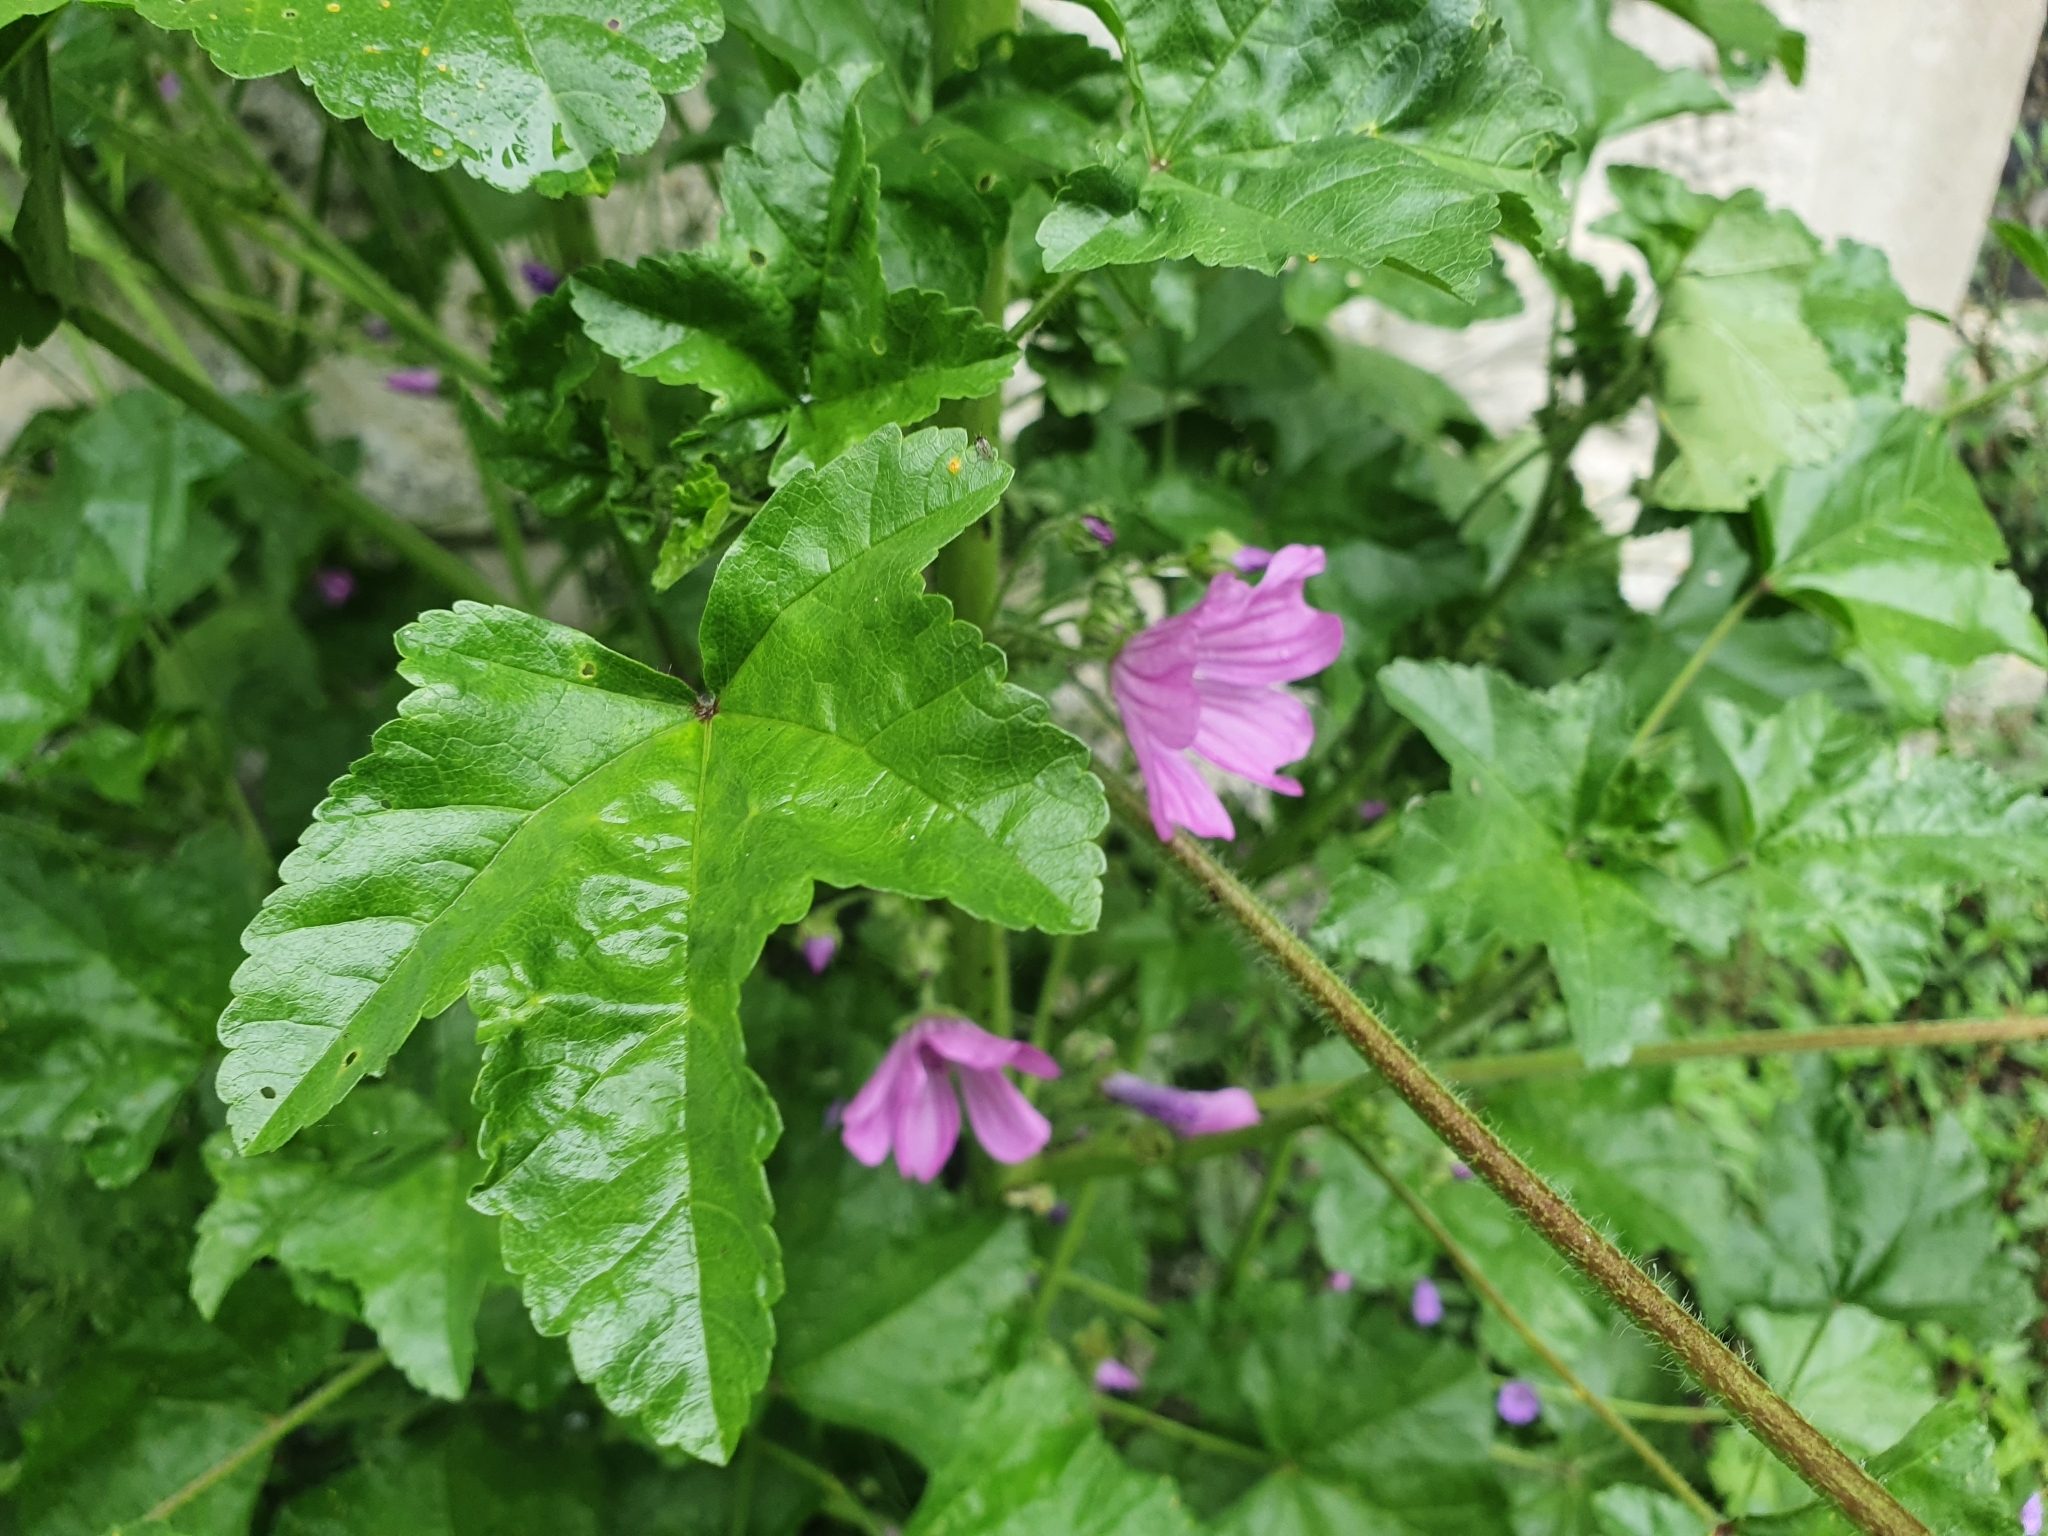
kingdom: Plantae
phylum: Tracheophyta
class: Magnoliopsida
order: Malvales
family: Malvaceae
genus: Malva
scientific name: Malva sylvestris
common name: Common mallow
